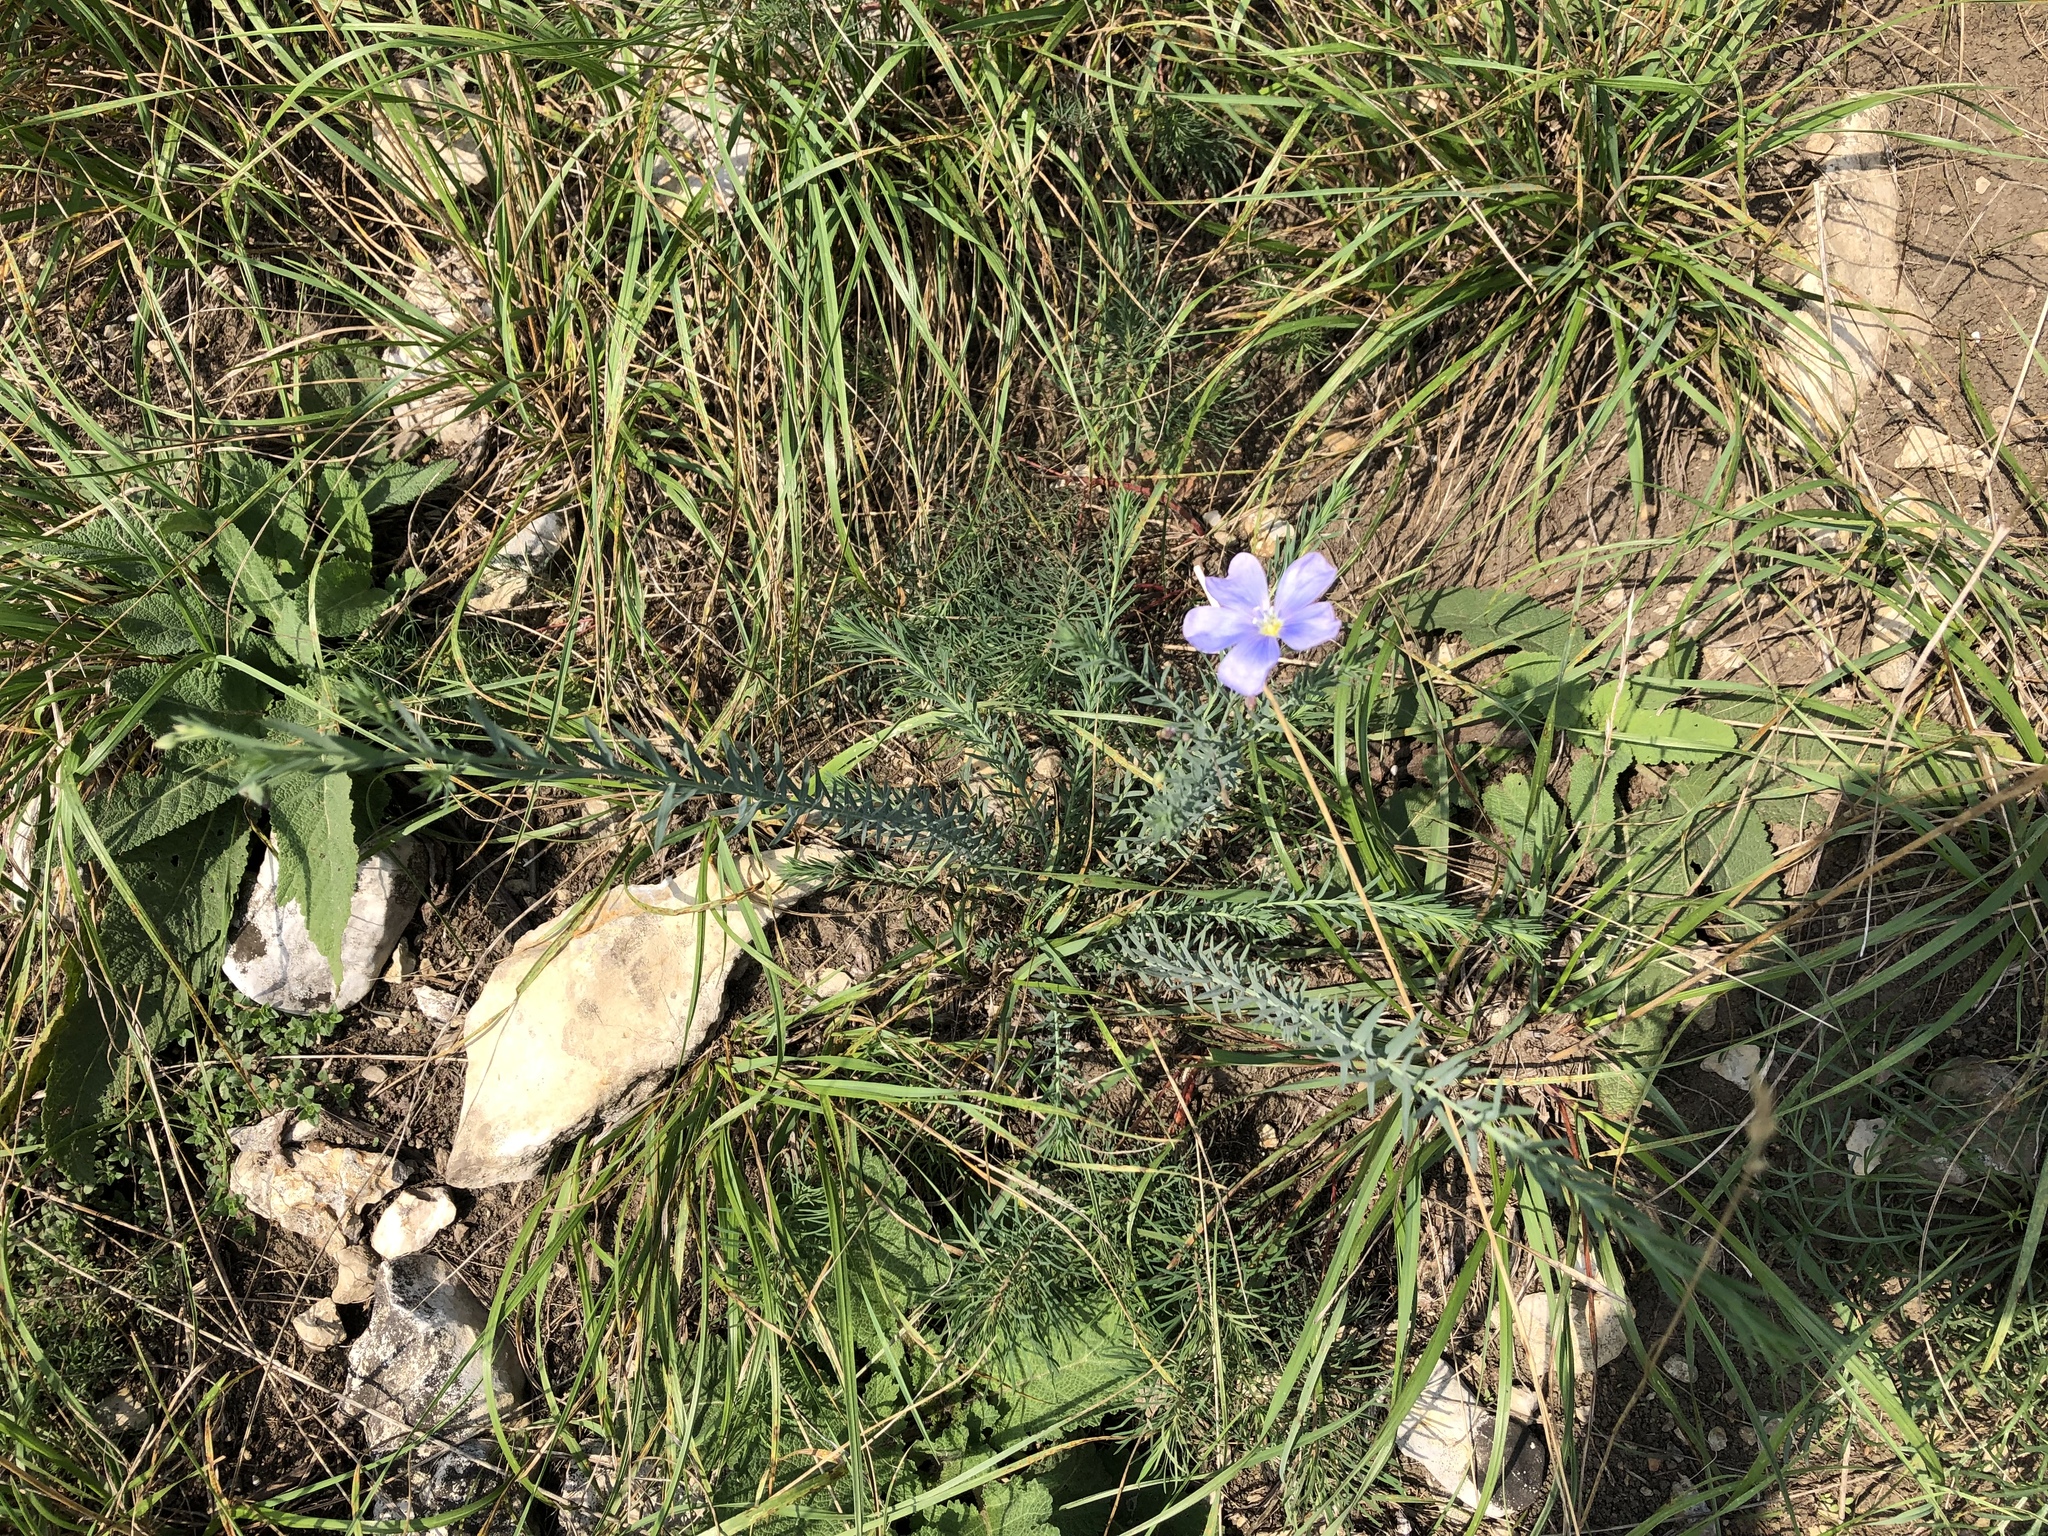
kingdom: Plantae
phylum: Tracheophyta
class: Magnoliopsida
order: Malpighiales
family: Linaceae
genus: Linum
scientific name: Linum austriacum
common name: Austrian flax
